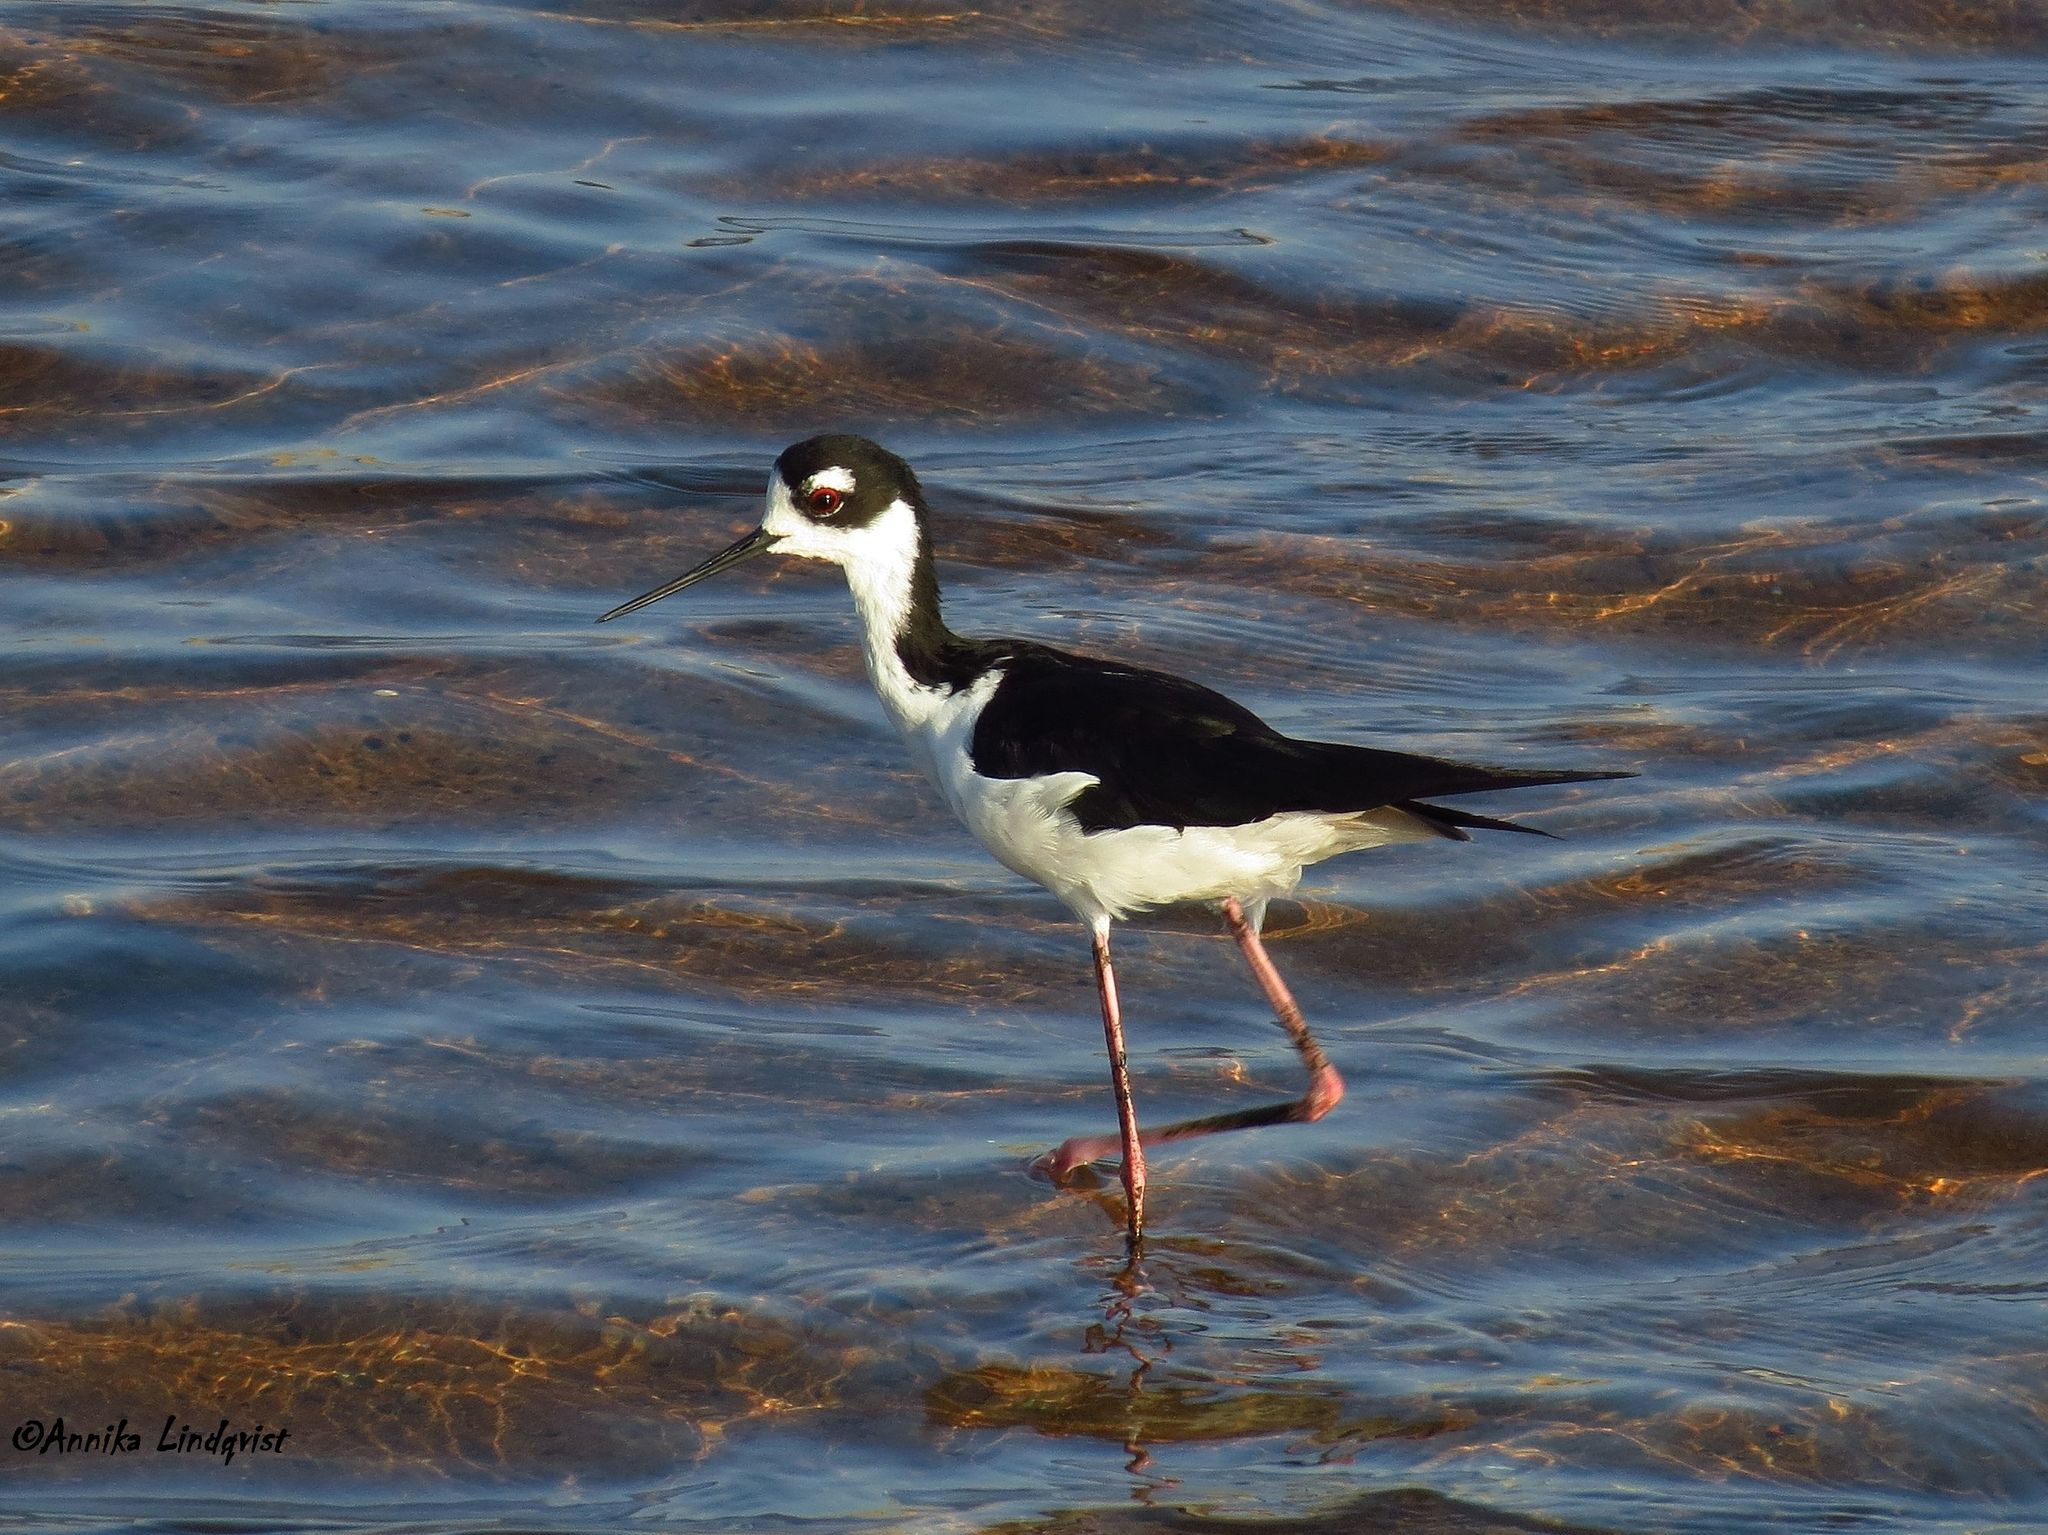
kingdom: Animalia
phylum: Chordata
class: Aves
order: Charadriiformes
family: Recurvirostridae
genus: Himantopus
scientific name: Himantopus mexicanus
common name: Black-necked stilt
